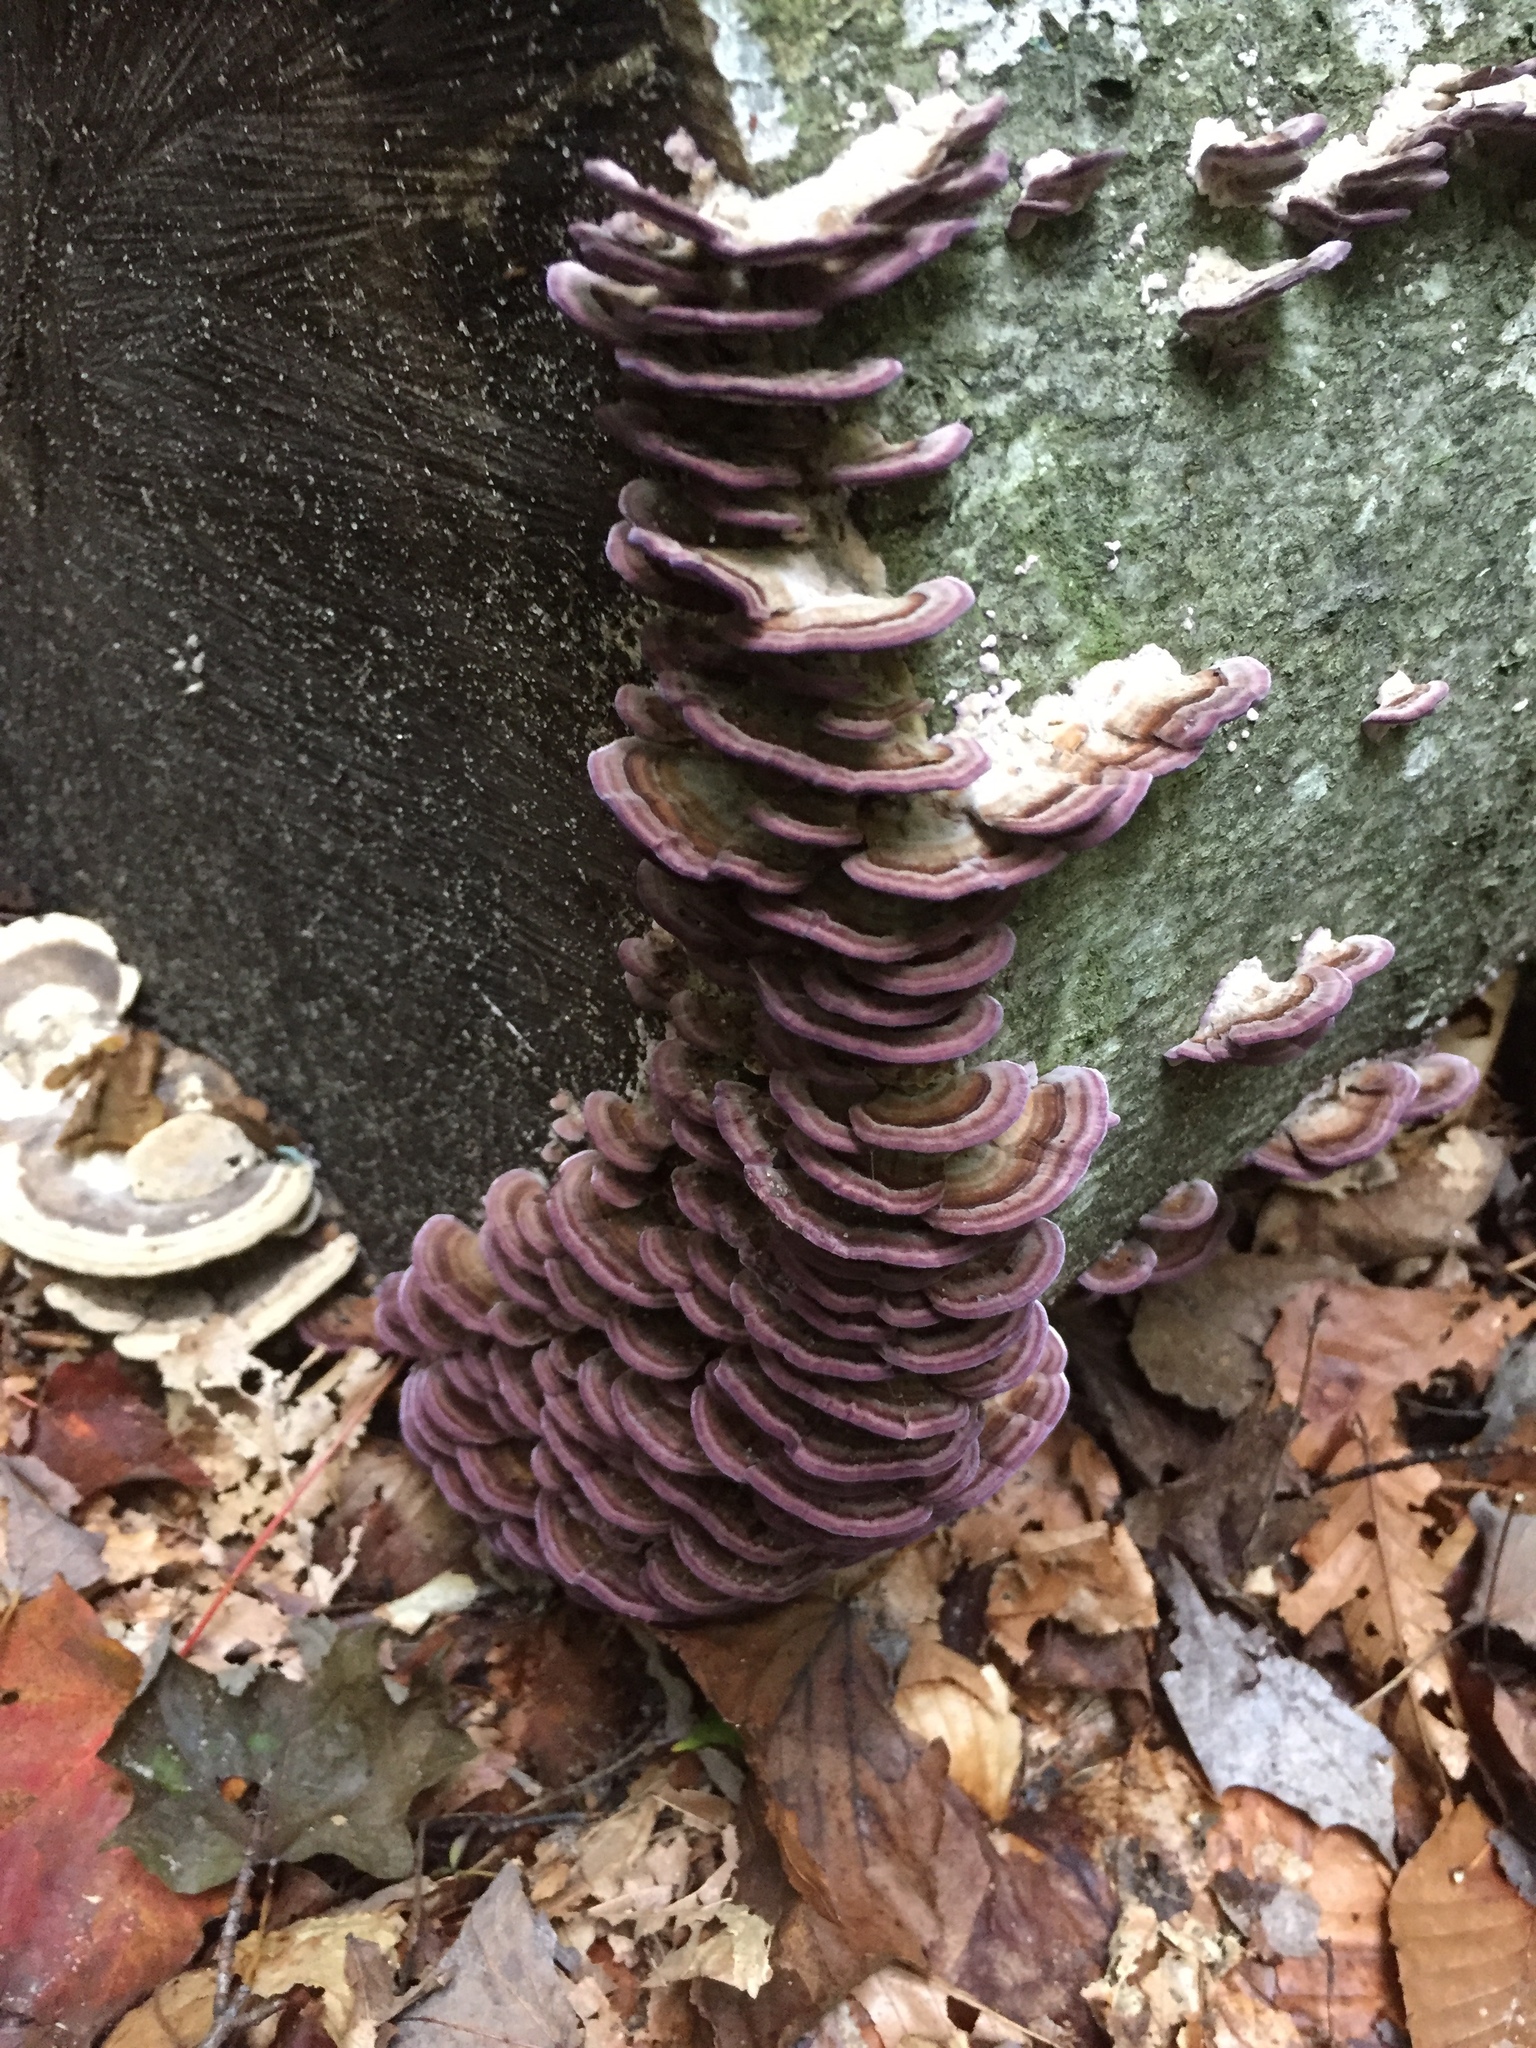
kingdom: Fungi
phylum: Basidiomycota
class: Agaricomycetes
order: Hymenochaetales
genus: Trichaptum
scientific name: Trichaptum biforme
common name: Violet-toothed polypore
